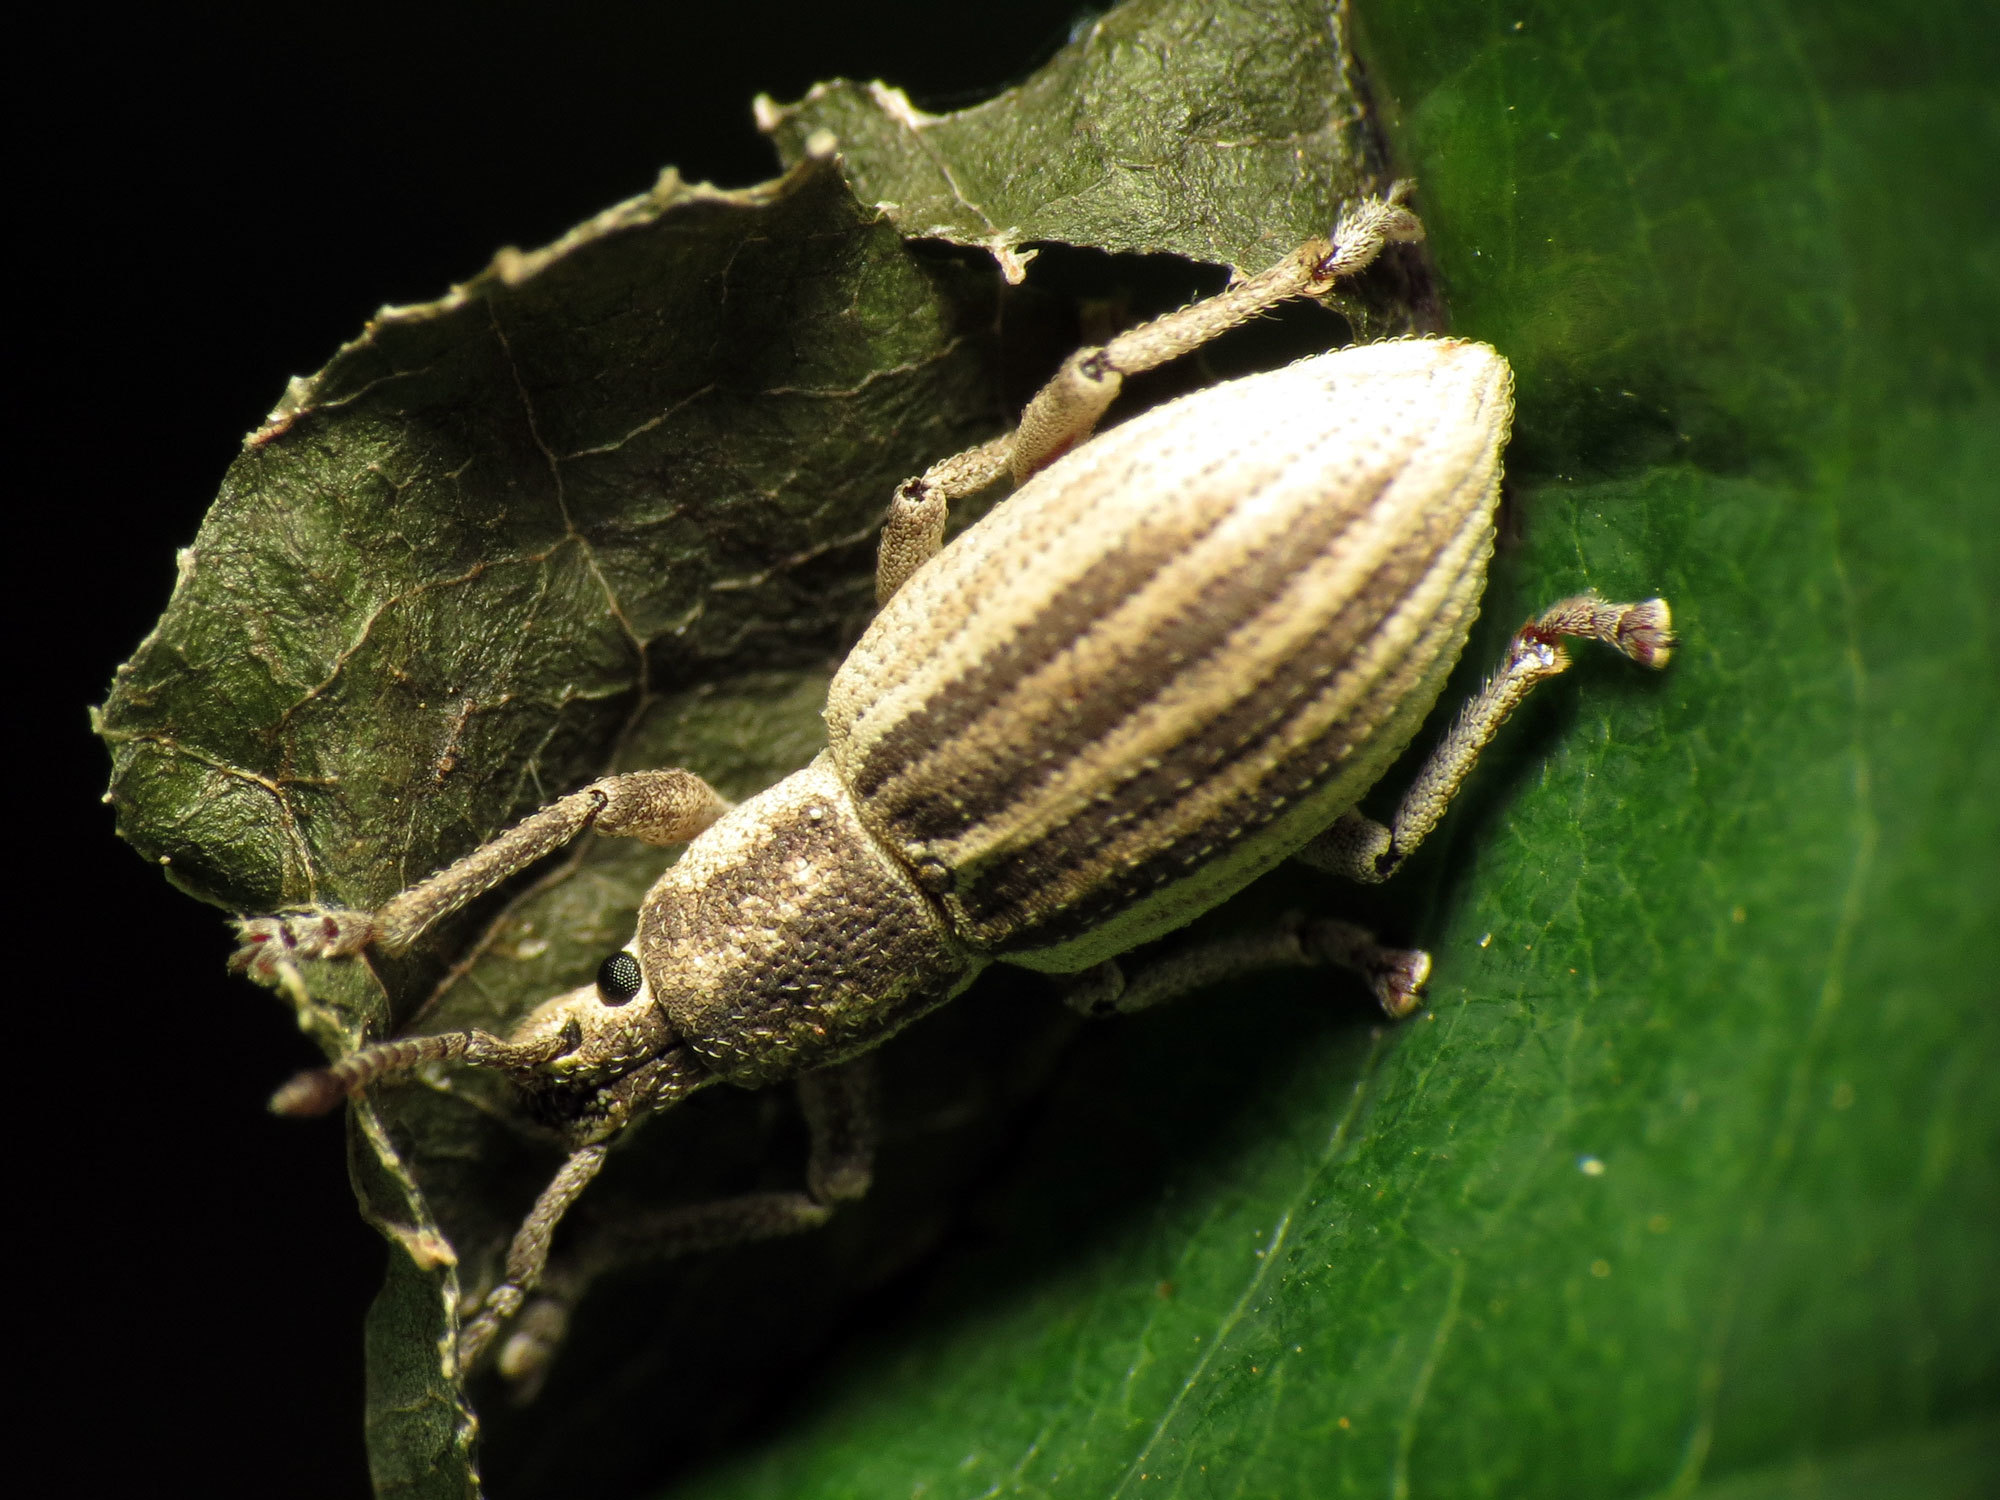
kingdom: Animalia
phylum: Arthropoda
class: Insecta
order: Coleoptera
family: Curculionidae
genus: Aphrastus
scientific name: Aphrastus taeniatus
